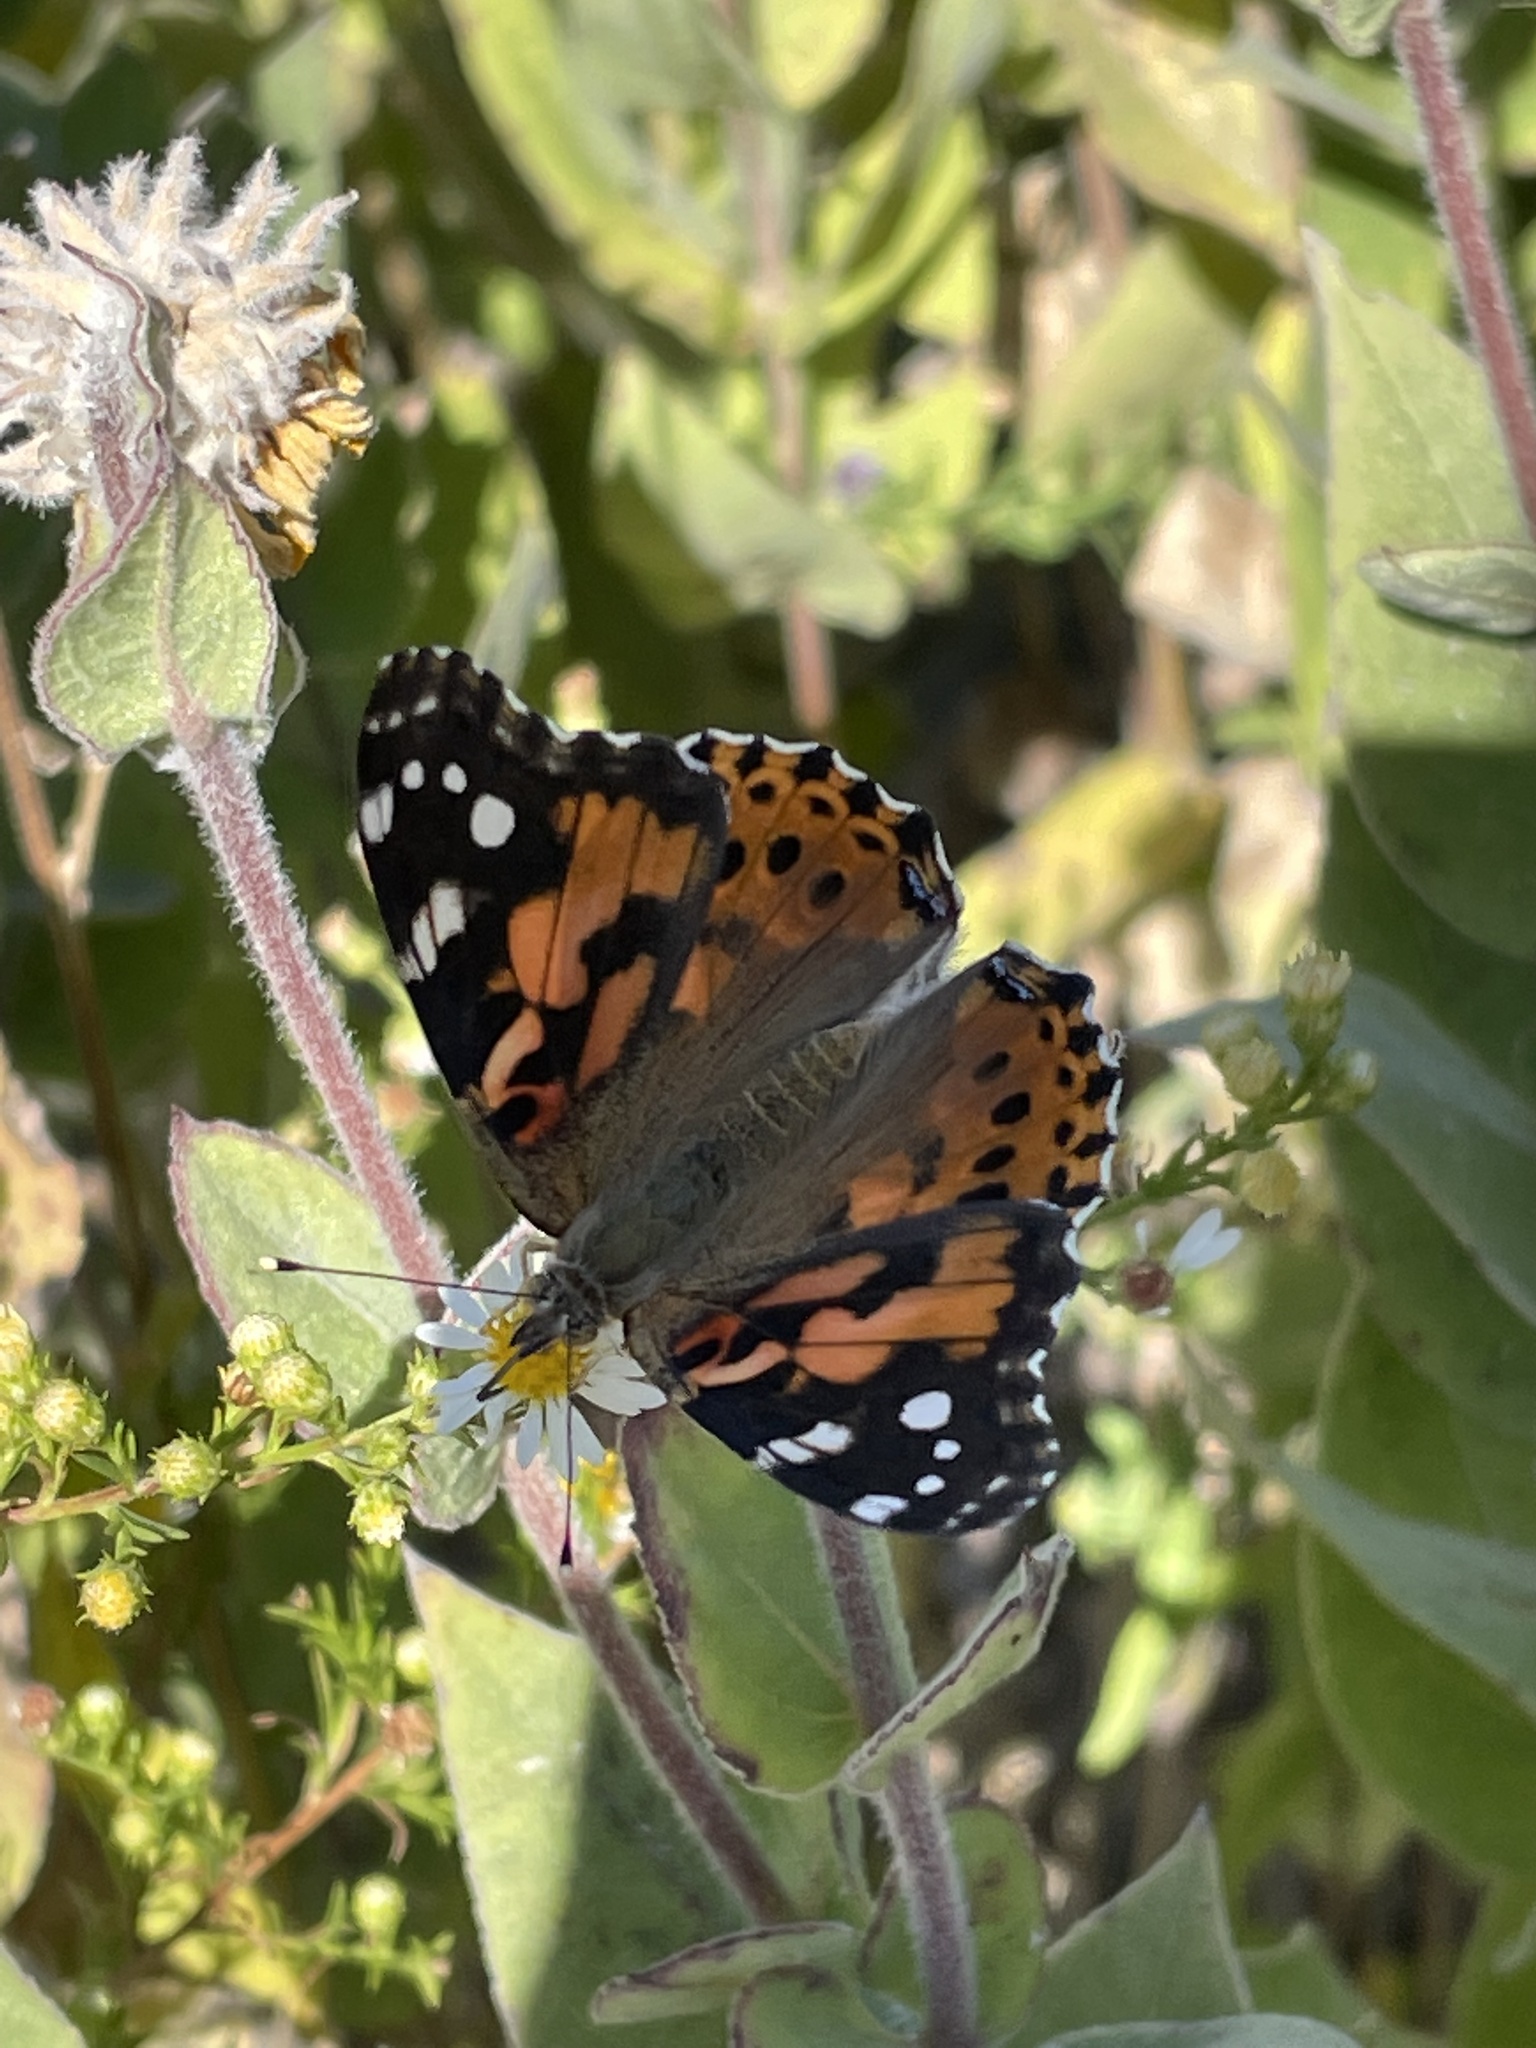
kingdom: Animalia
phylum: Arthropoda
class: Insecta
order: Lepidoptera
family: Nymphalidae
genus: Vanessa
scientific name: Vanessa cardui
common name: Painted lady
